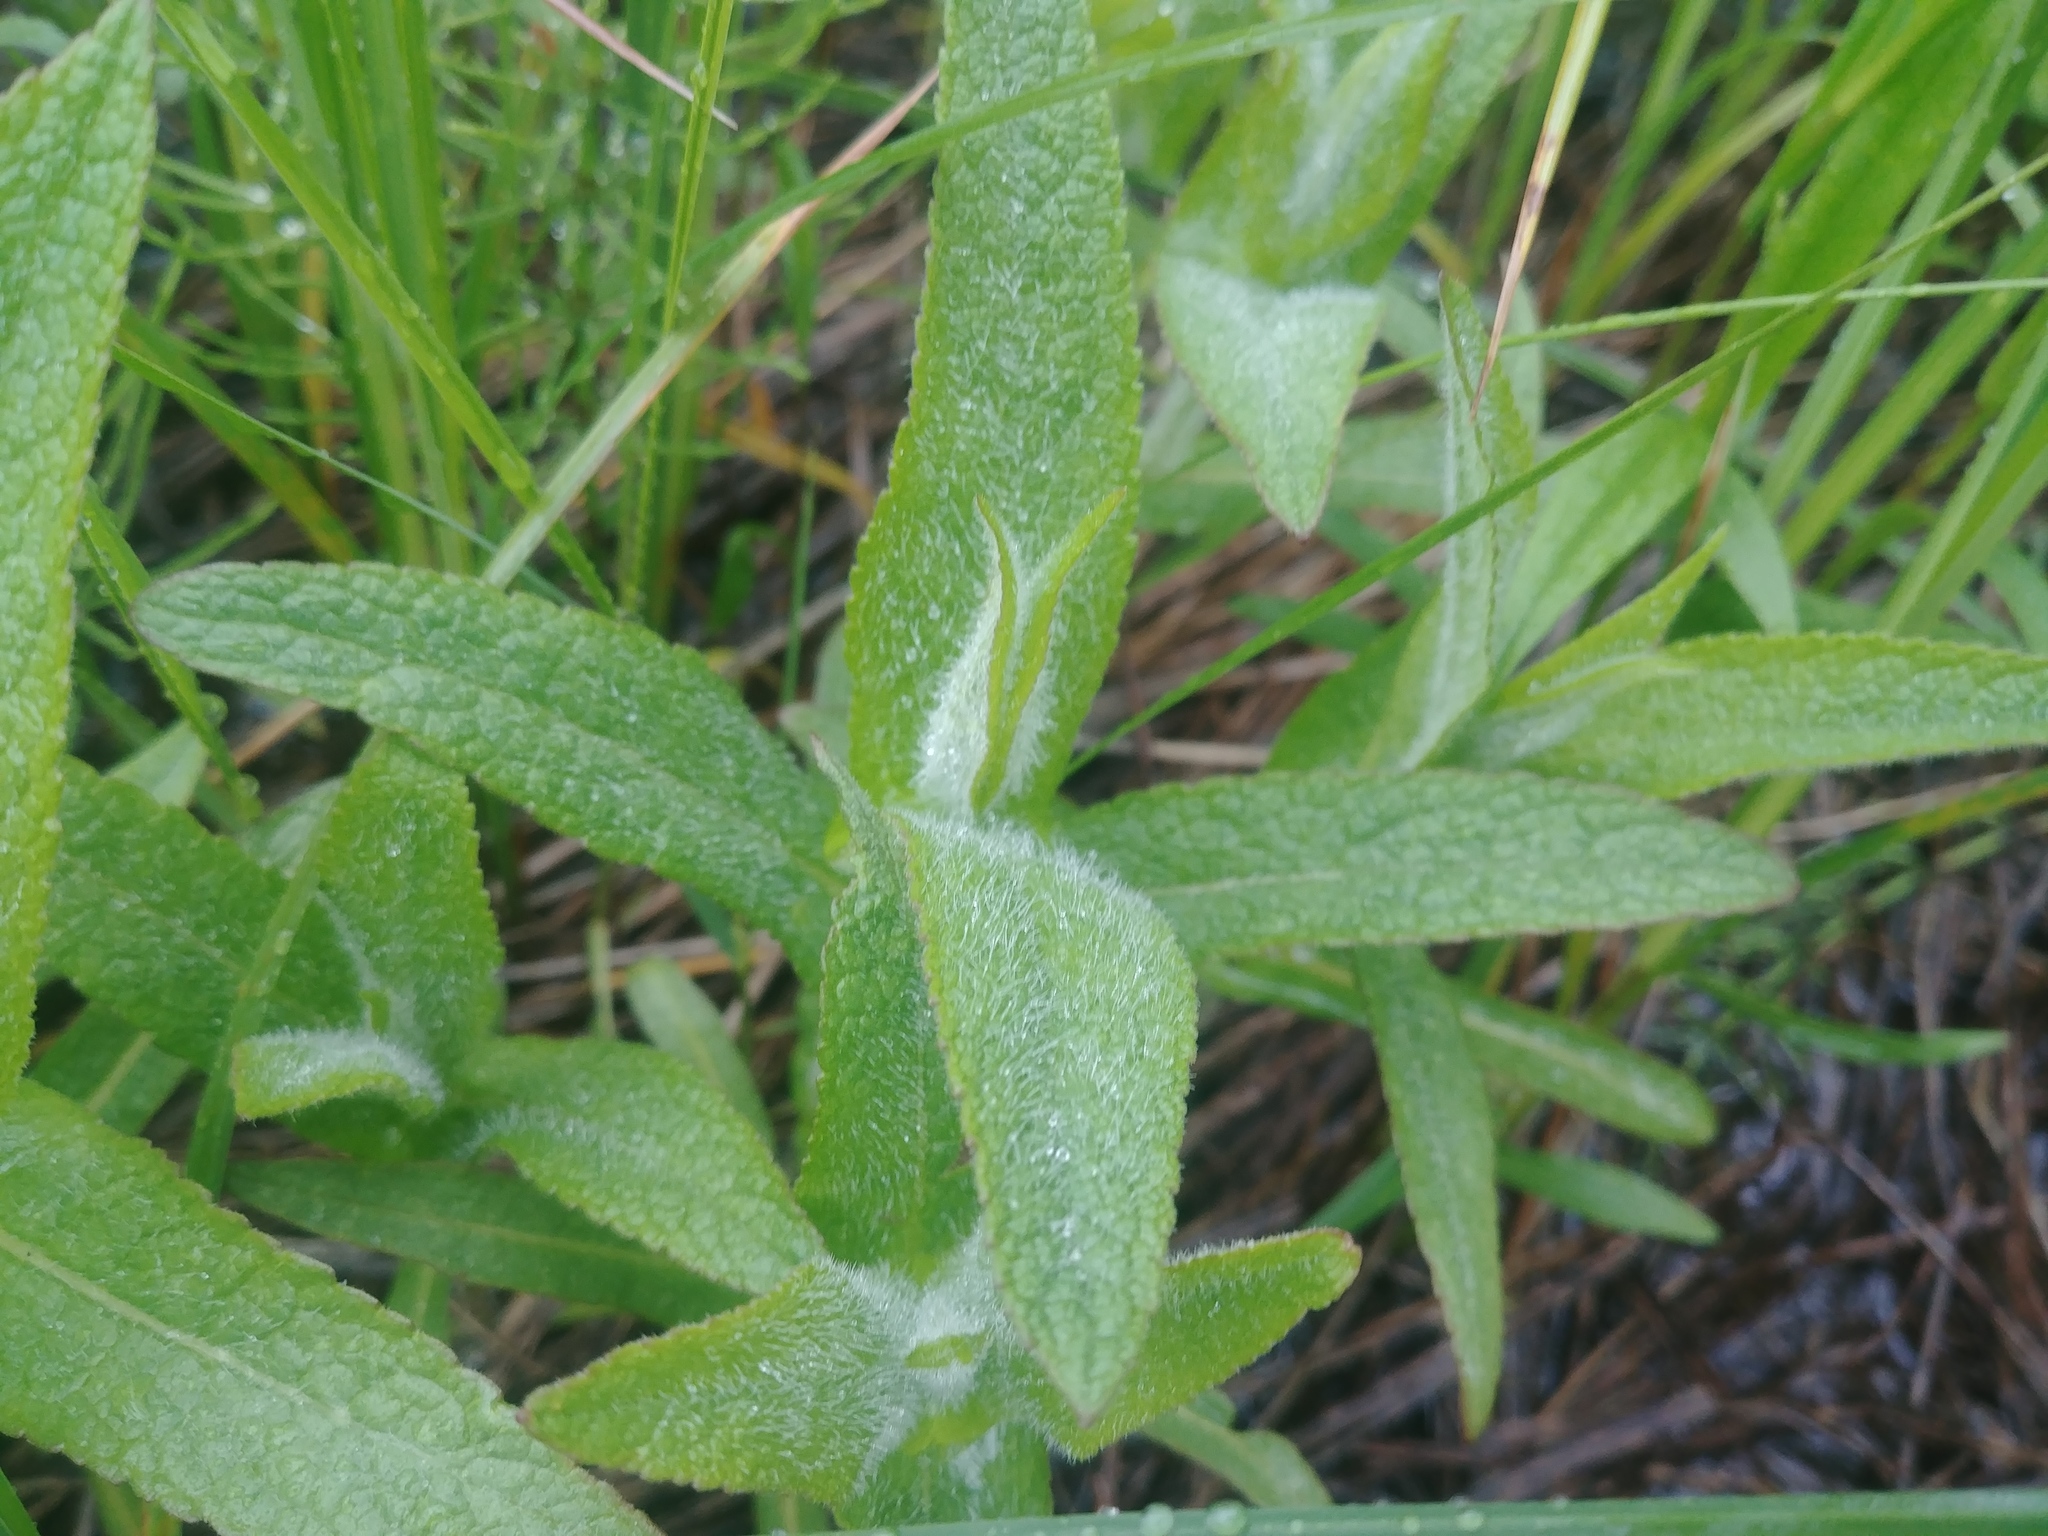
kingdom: Plantae
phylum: Tracheophyta
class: Magnoliopsida
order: Asterales
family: Asteraceae
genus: Eupatorium
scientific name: Eupatorium perfoliatum
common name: Boneset
